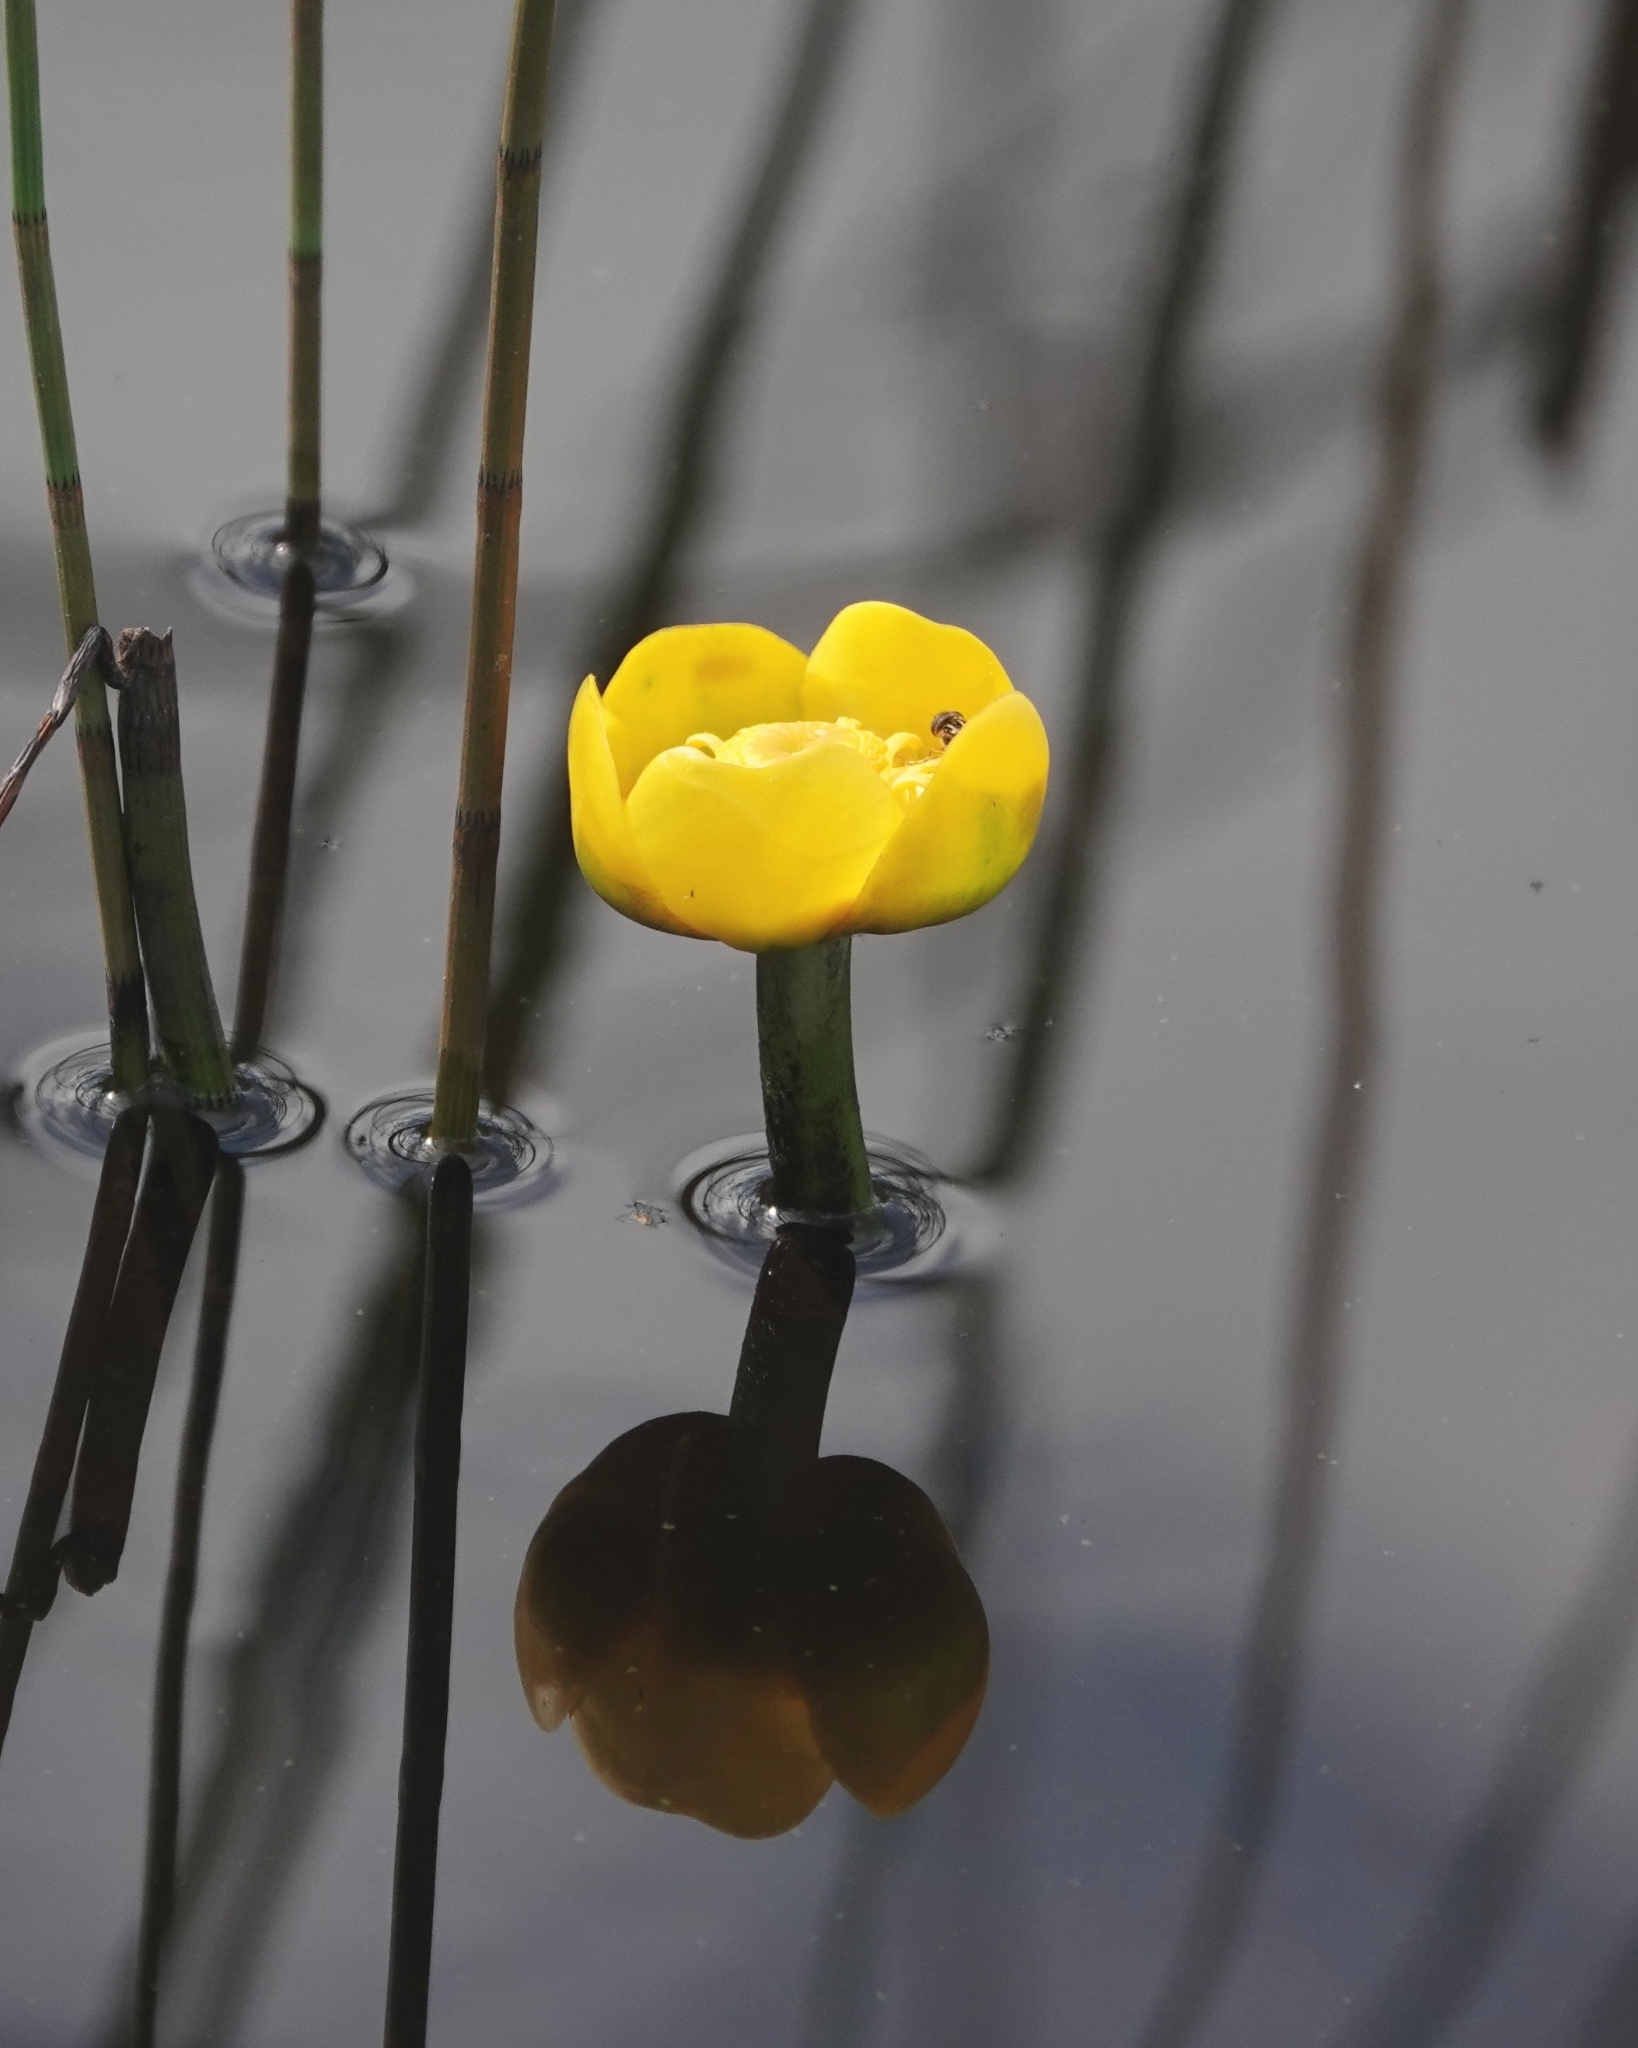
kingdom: Plantae
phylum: Tracheophyta
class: Magnoliopsida
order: Nymphaeales
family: Nymphaeaceae
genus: Nuphar
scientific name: Nuphar lutea
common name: Yellow water-lily
